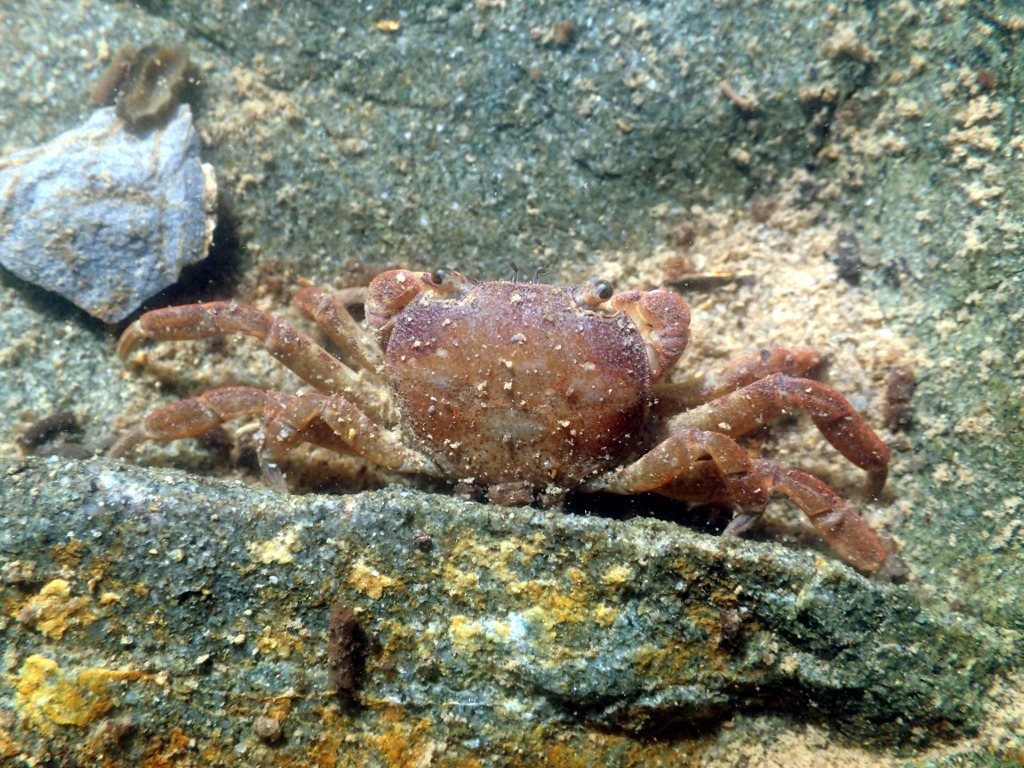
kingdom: Animalia
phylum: Arthropoda
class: Malacostraca
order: Decapoda
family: Varunidae
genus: Cyclograpsus
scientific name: Cyclograpsus lavauxi
